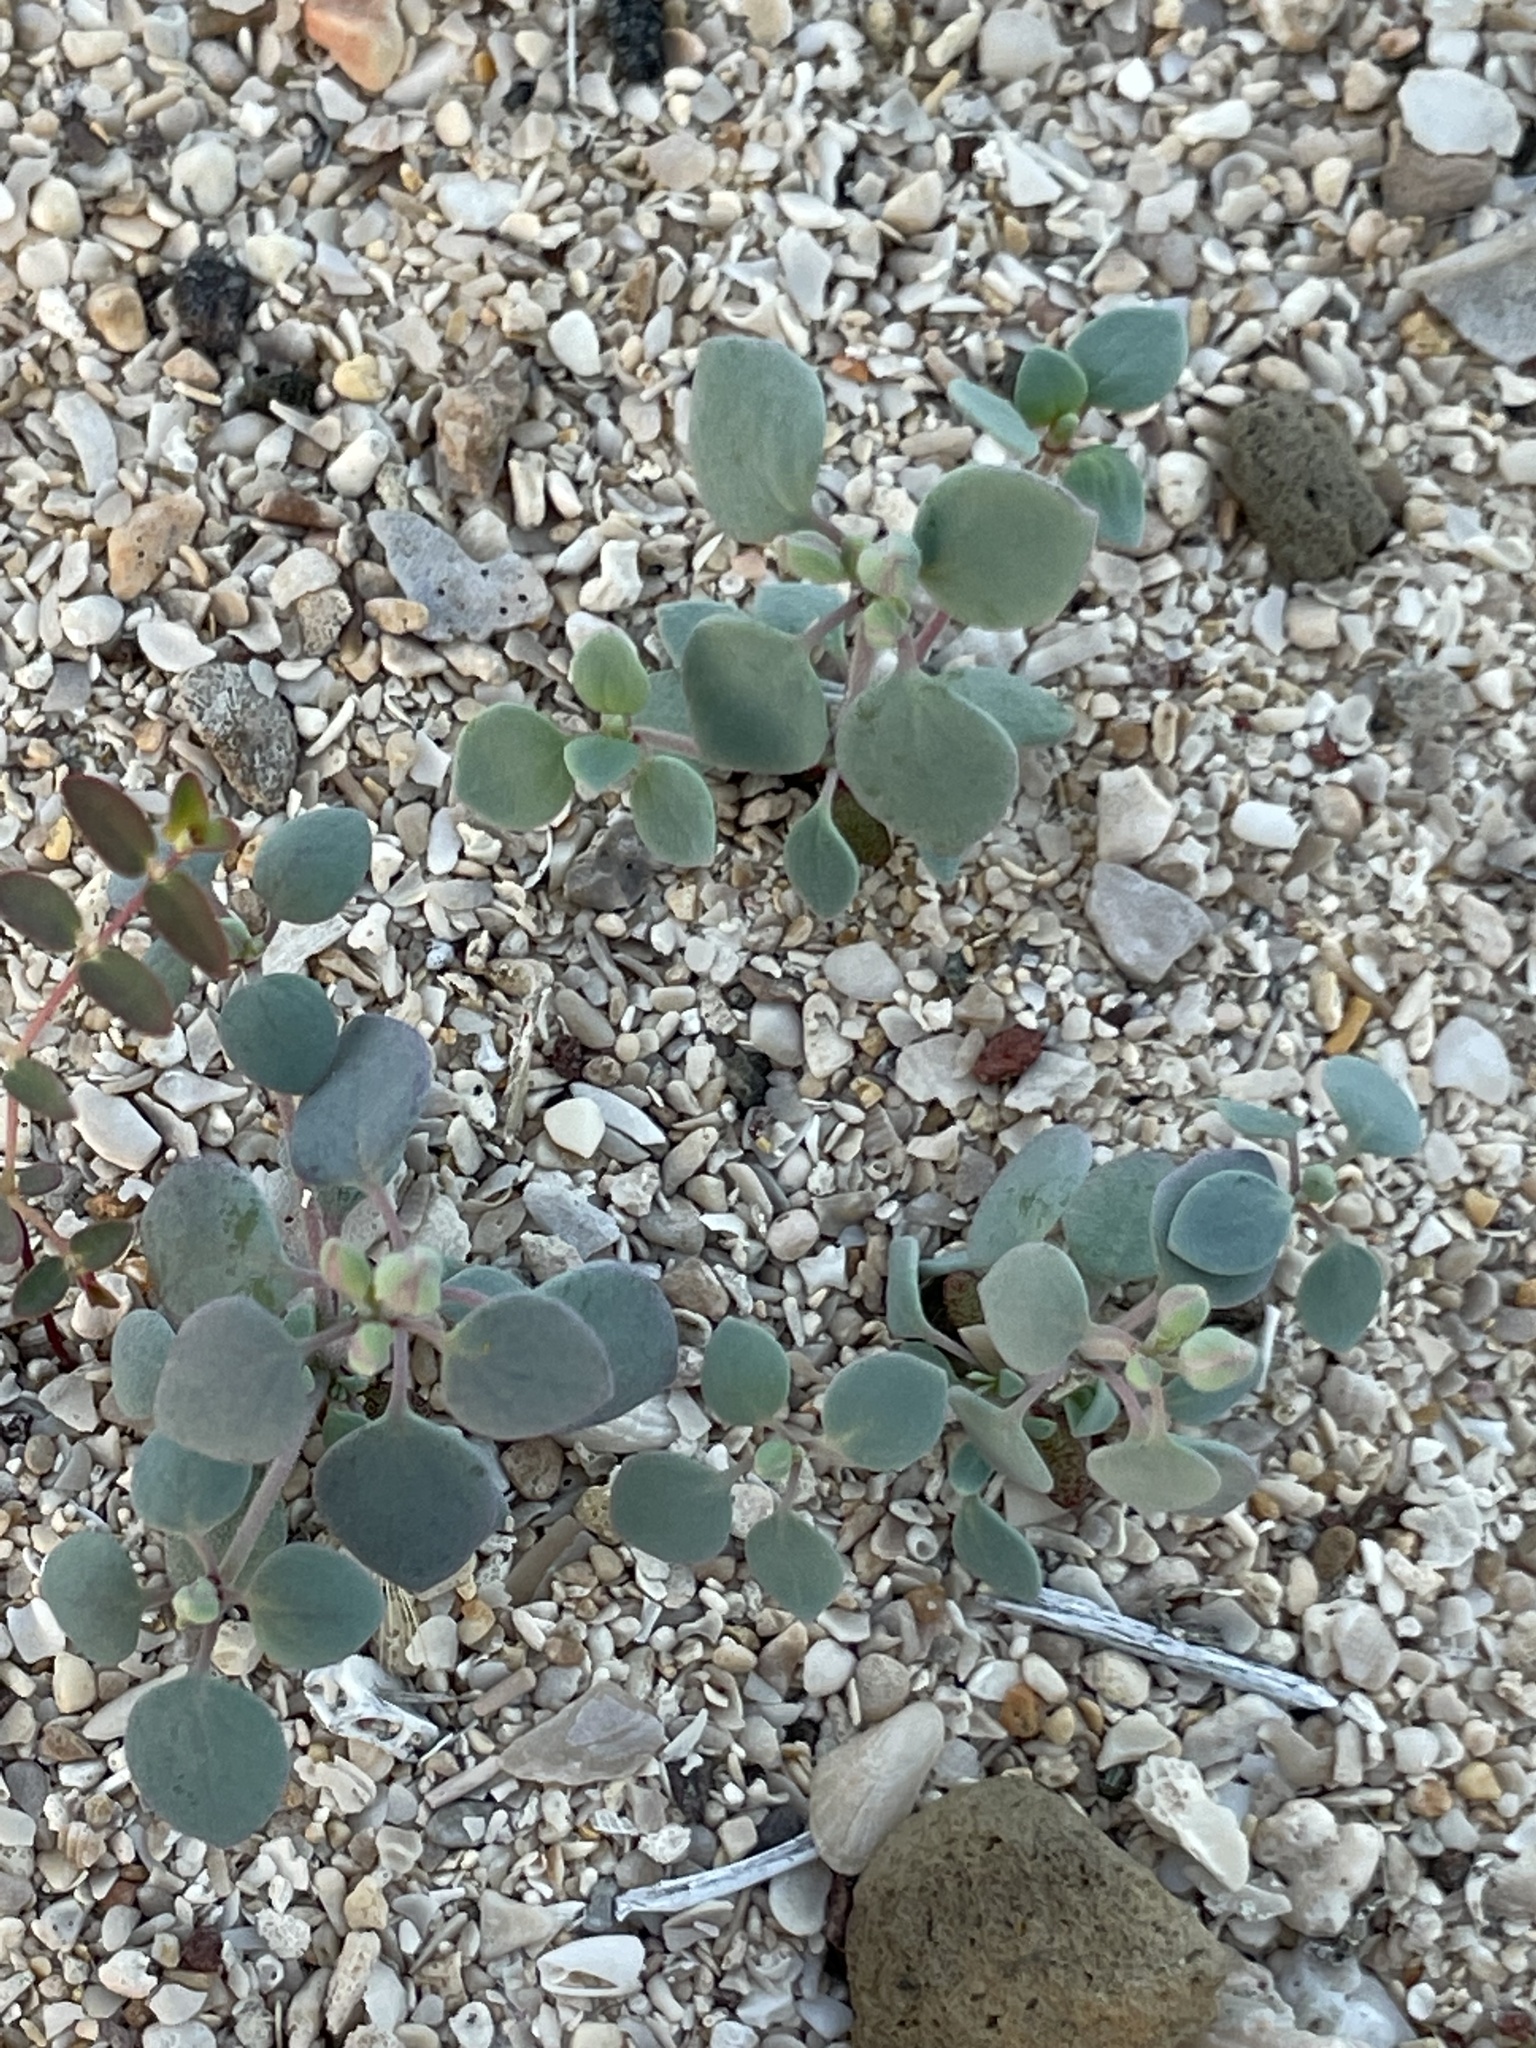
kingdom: Plantae
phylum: Tracheophyta
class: Magnoliopsida
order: Caryophyllales
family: Caryophyllaceae
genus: Drymaria
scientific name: Drymaria holosteoides
